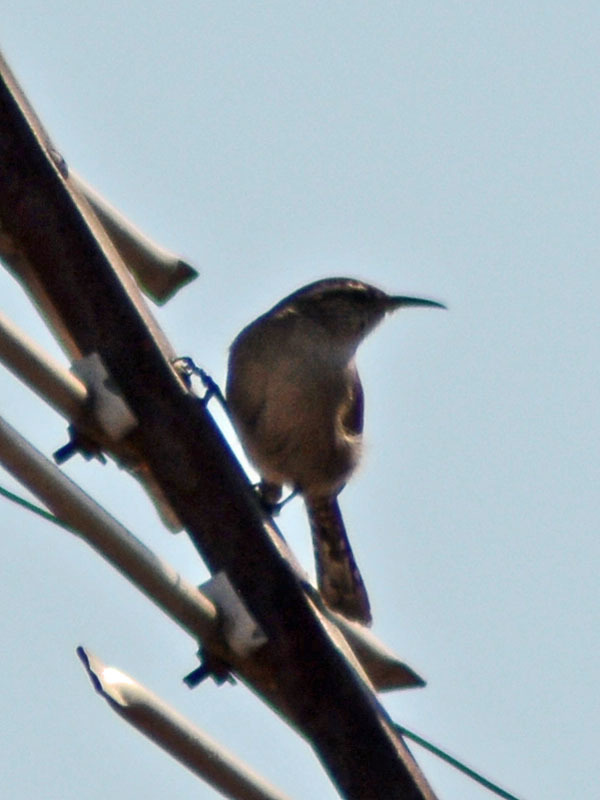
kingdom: Animalia
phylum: Chordata
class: Aves
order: Passeriformes
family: Troglodytidae
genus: Thryomanes
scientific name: Thryomanes bewickii
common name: Bewick's wren
